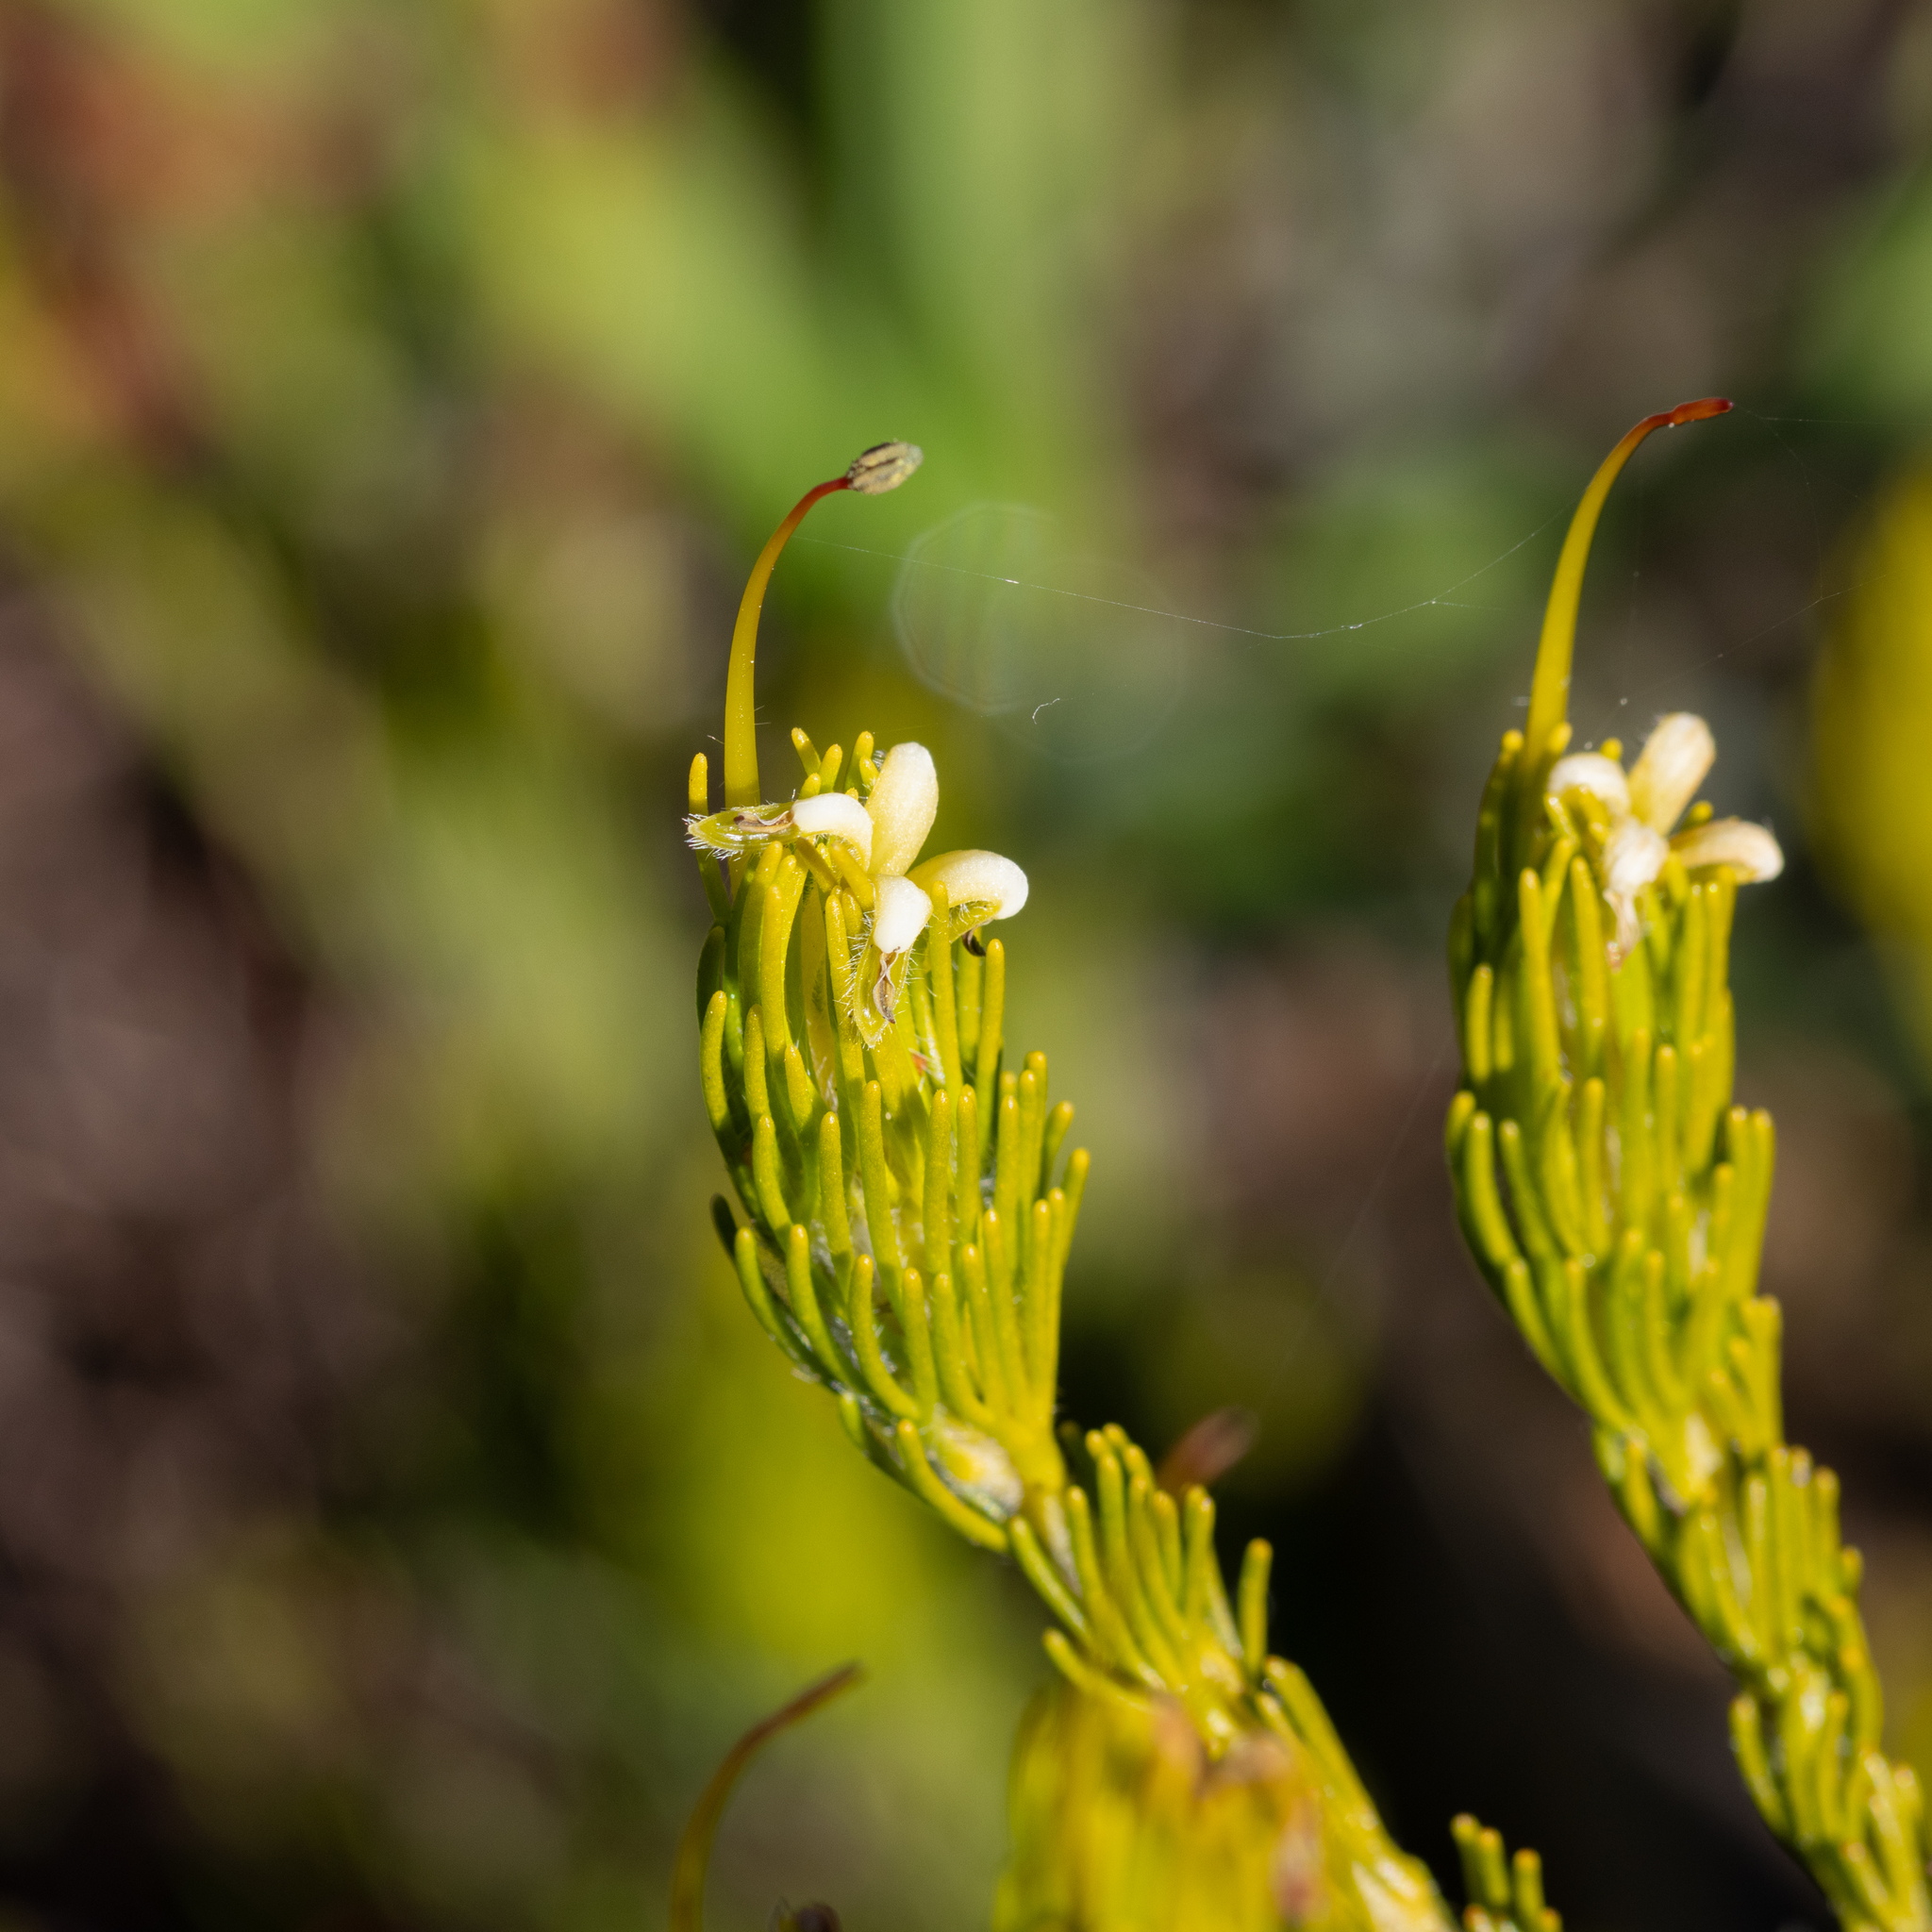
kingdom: Plantae
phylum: Tracheophyta
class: Magnoliopsida
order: Proteales
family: Proteaceae
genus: Adenanthos
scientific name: Adenanthos terminalis
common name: Yellow gland-flower
